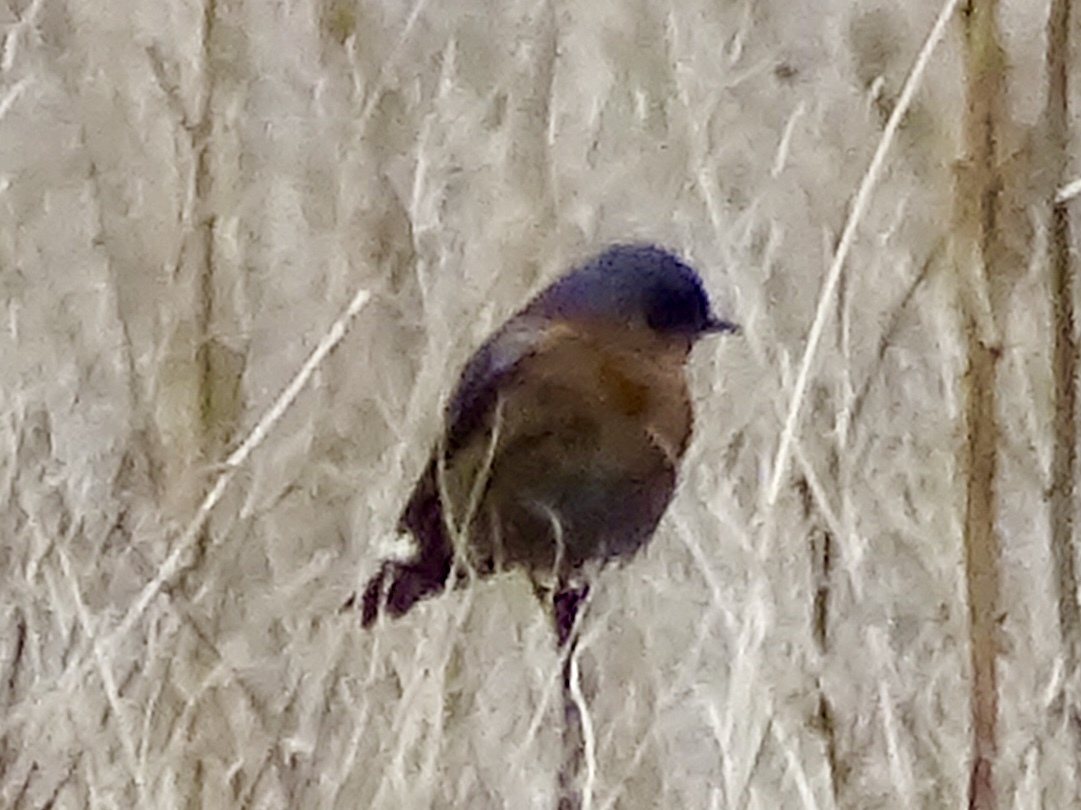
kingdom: Animalia
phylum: Chordata
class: Aves
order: Passeriformes
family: Turdidae
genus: Sialia
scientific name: Sialia mexicana
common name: Western bluebird
